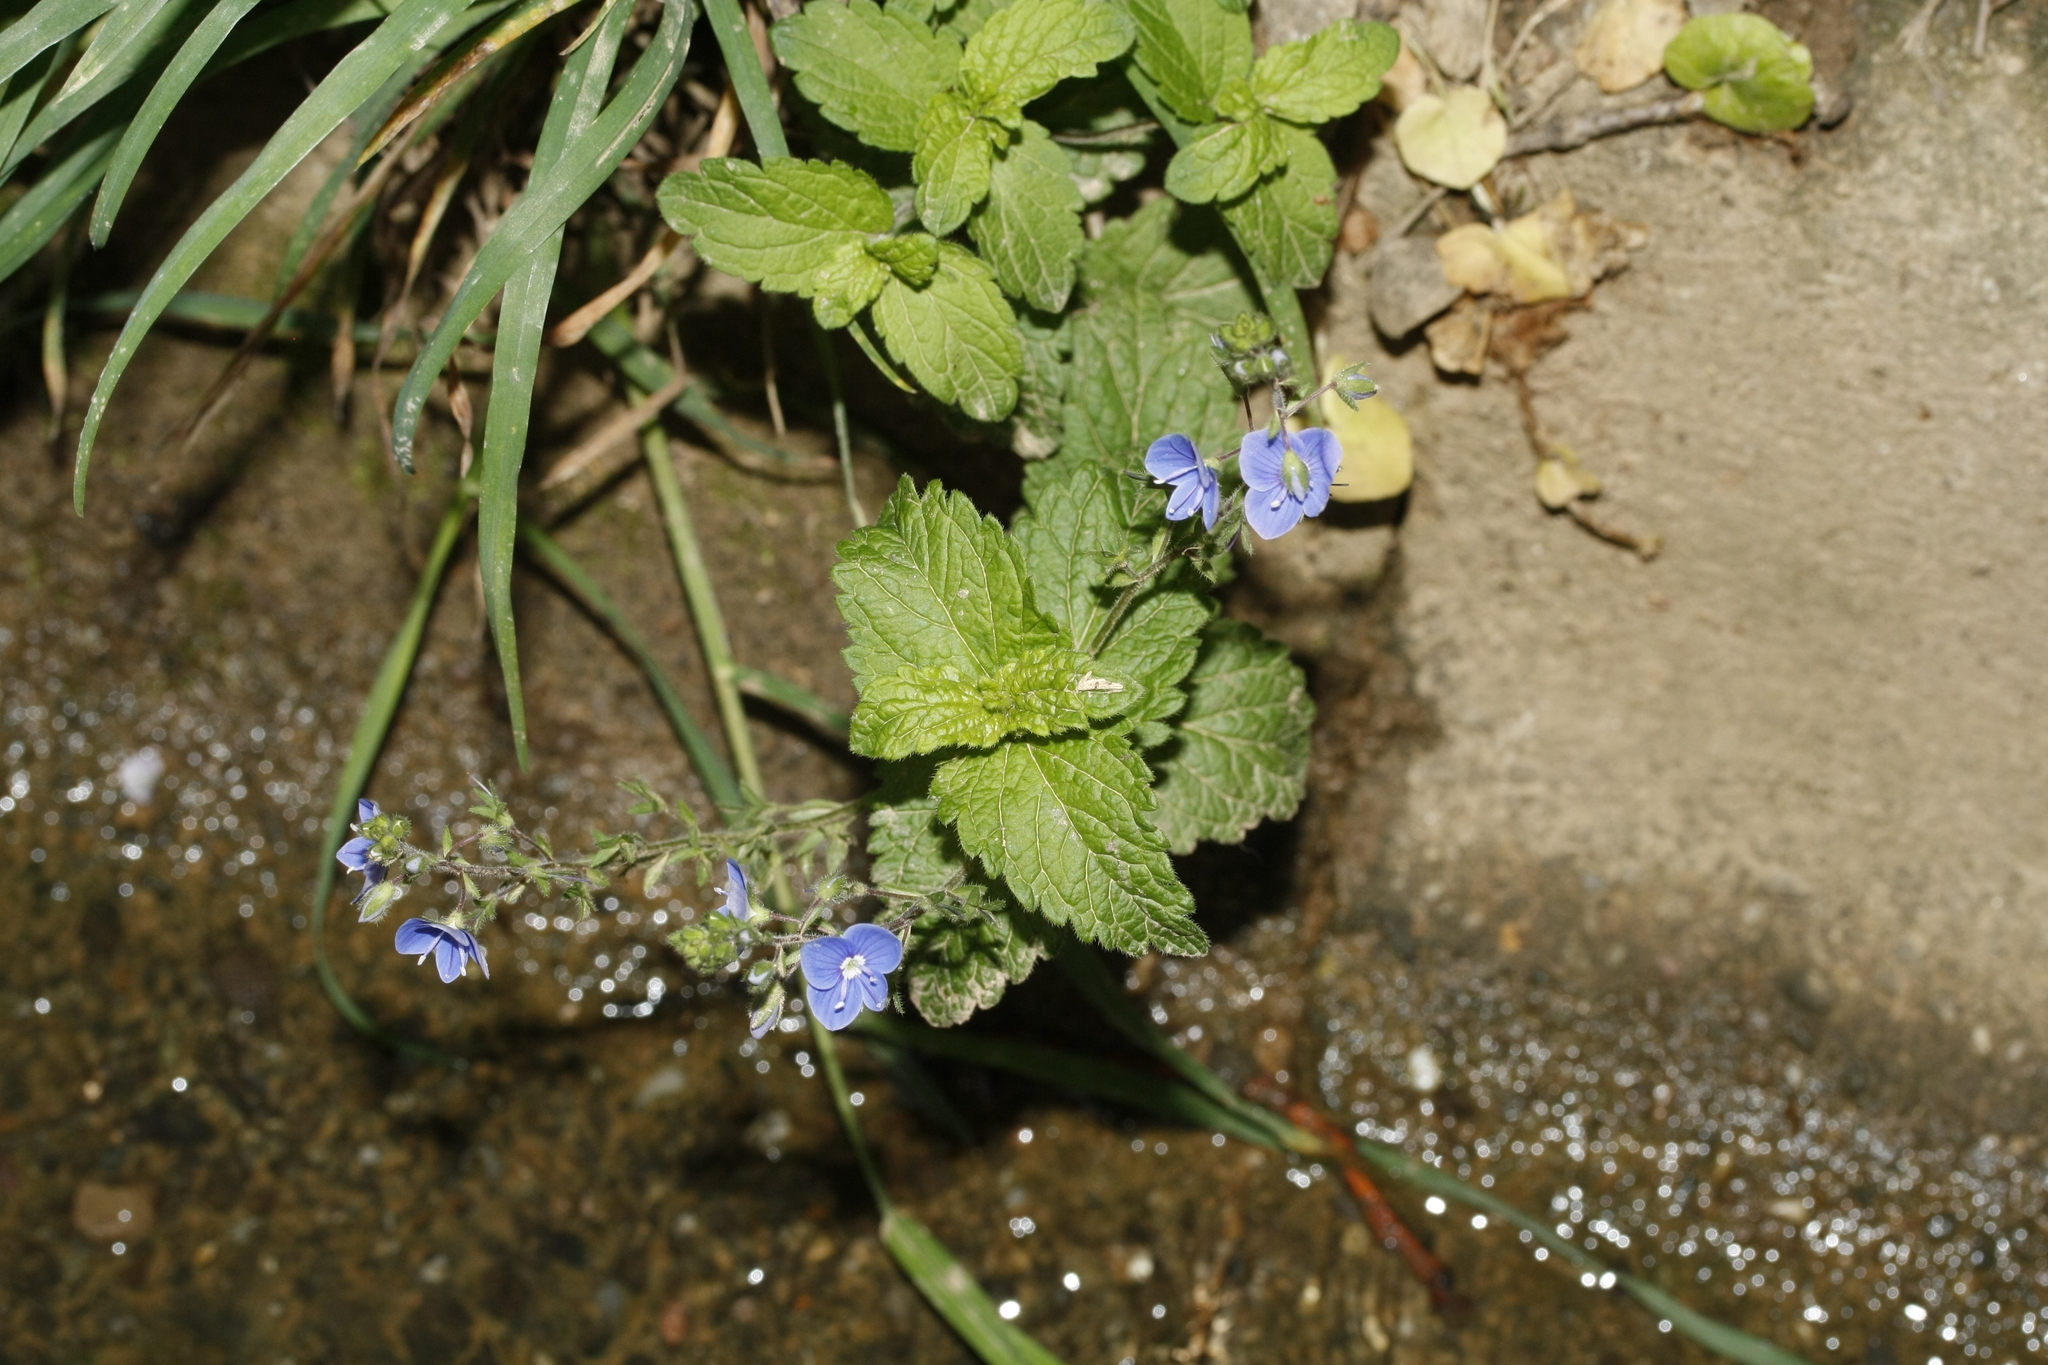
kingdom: Plantae
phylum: Tracheophyta
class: Magnoliopsida
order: Lamiales
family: Plantaginaceae
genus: Veronica
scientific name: Veronica chamaedrys
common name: Germander speedwell
